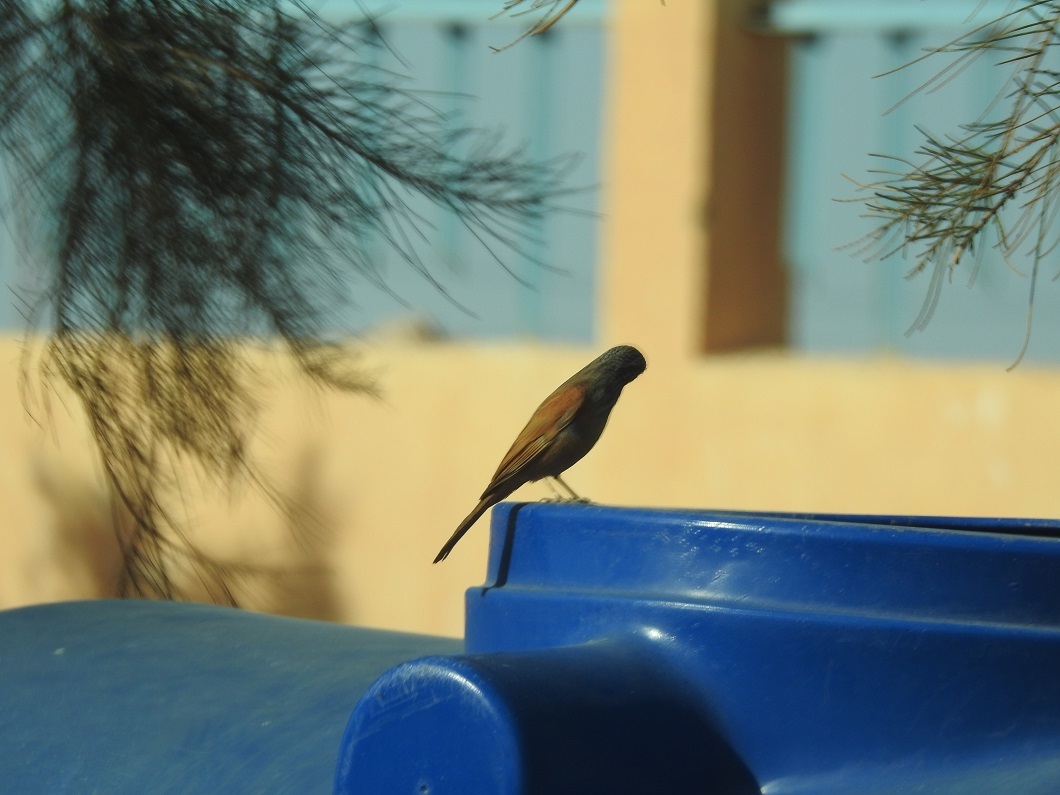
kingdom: Animalia
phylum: Chordata
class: Aves
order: Passeriformes
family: Emberizidae
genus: Emberiza
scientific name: Emberiza sahari
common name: House bunting
